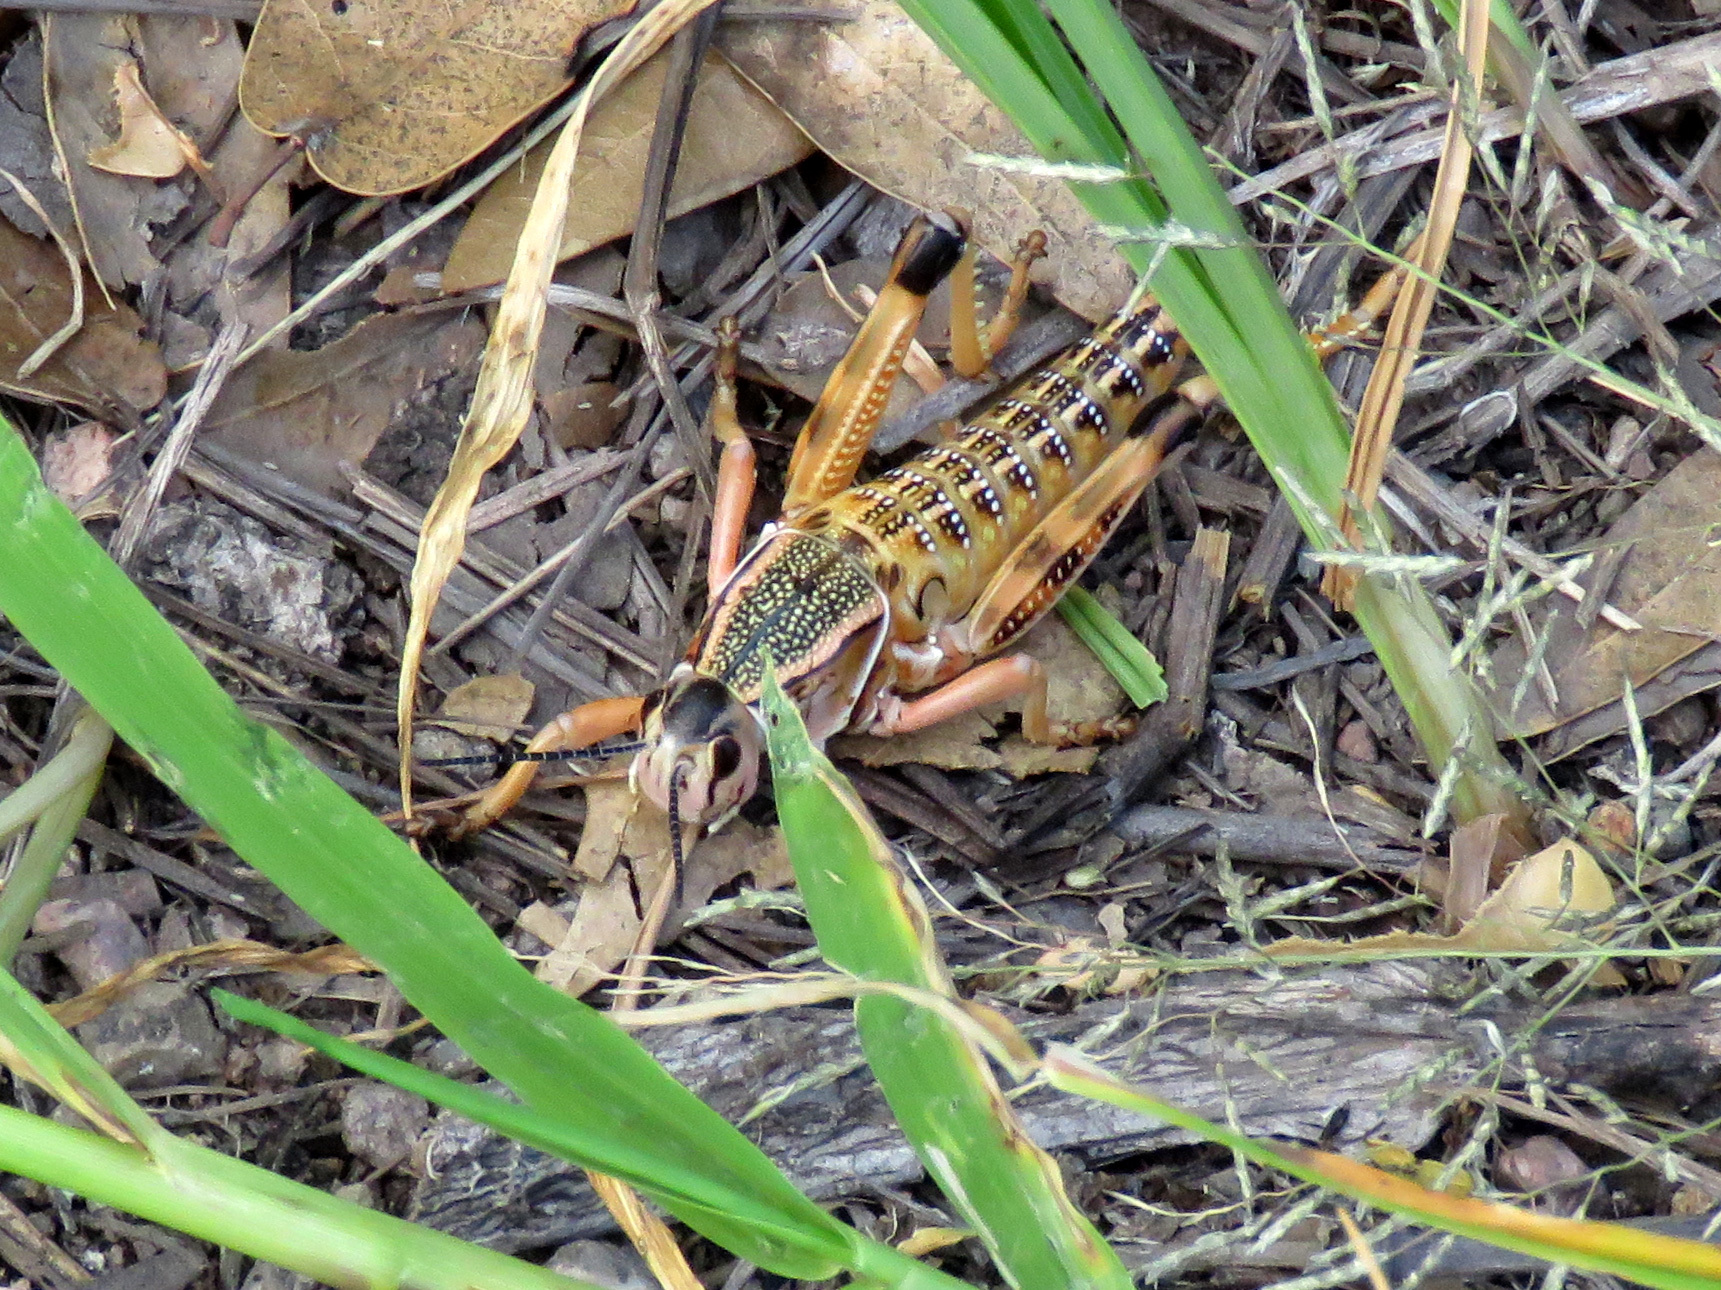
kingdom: Animalia
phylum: Arthropoda
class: Insecta
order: Orthoptera
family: Romaleidae
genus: Brachystola
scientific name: Brachystola magna
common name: Plains lubber grasshopper
